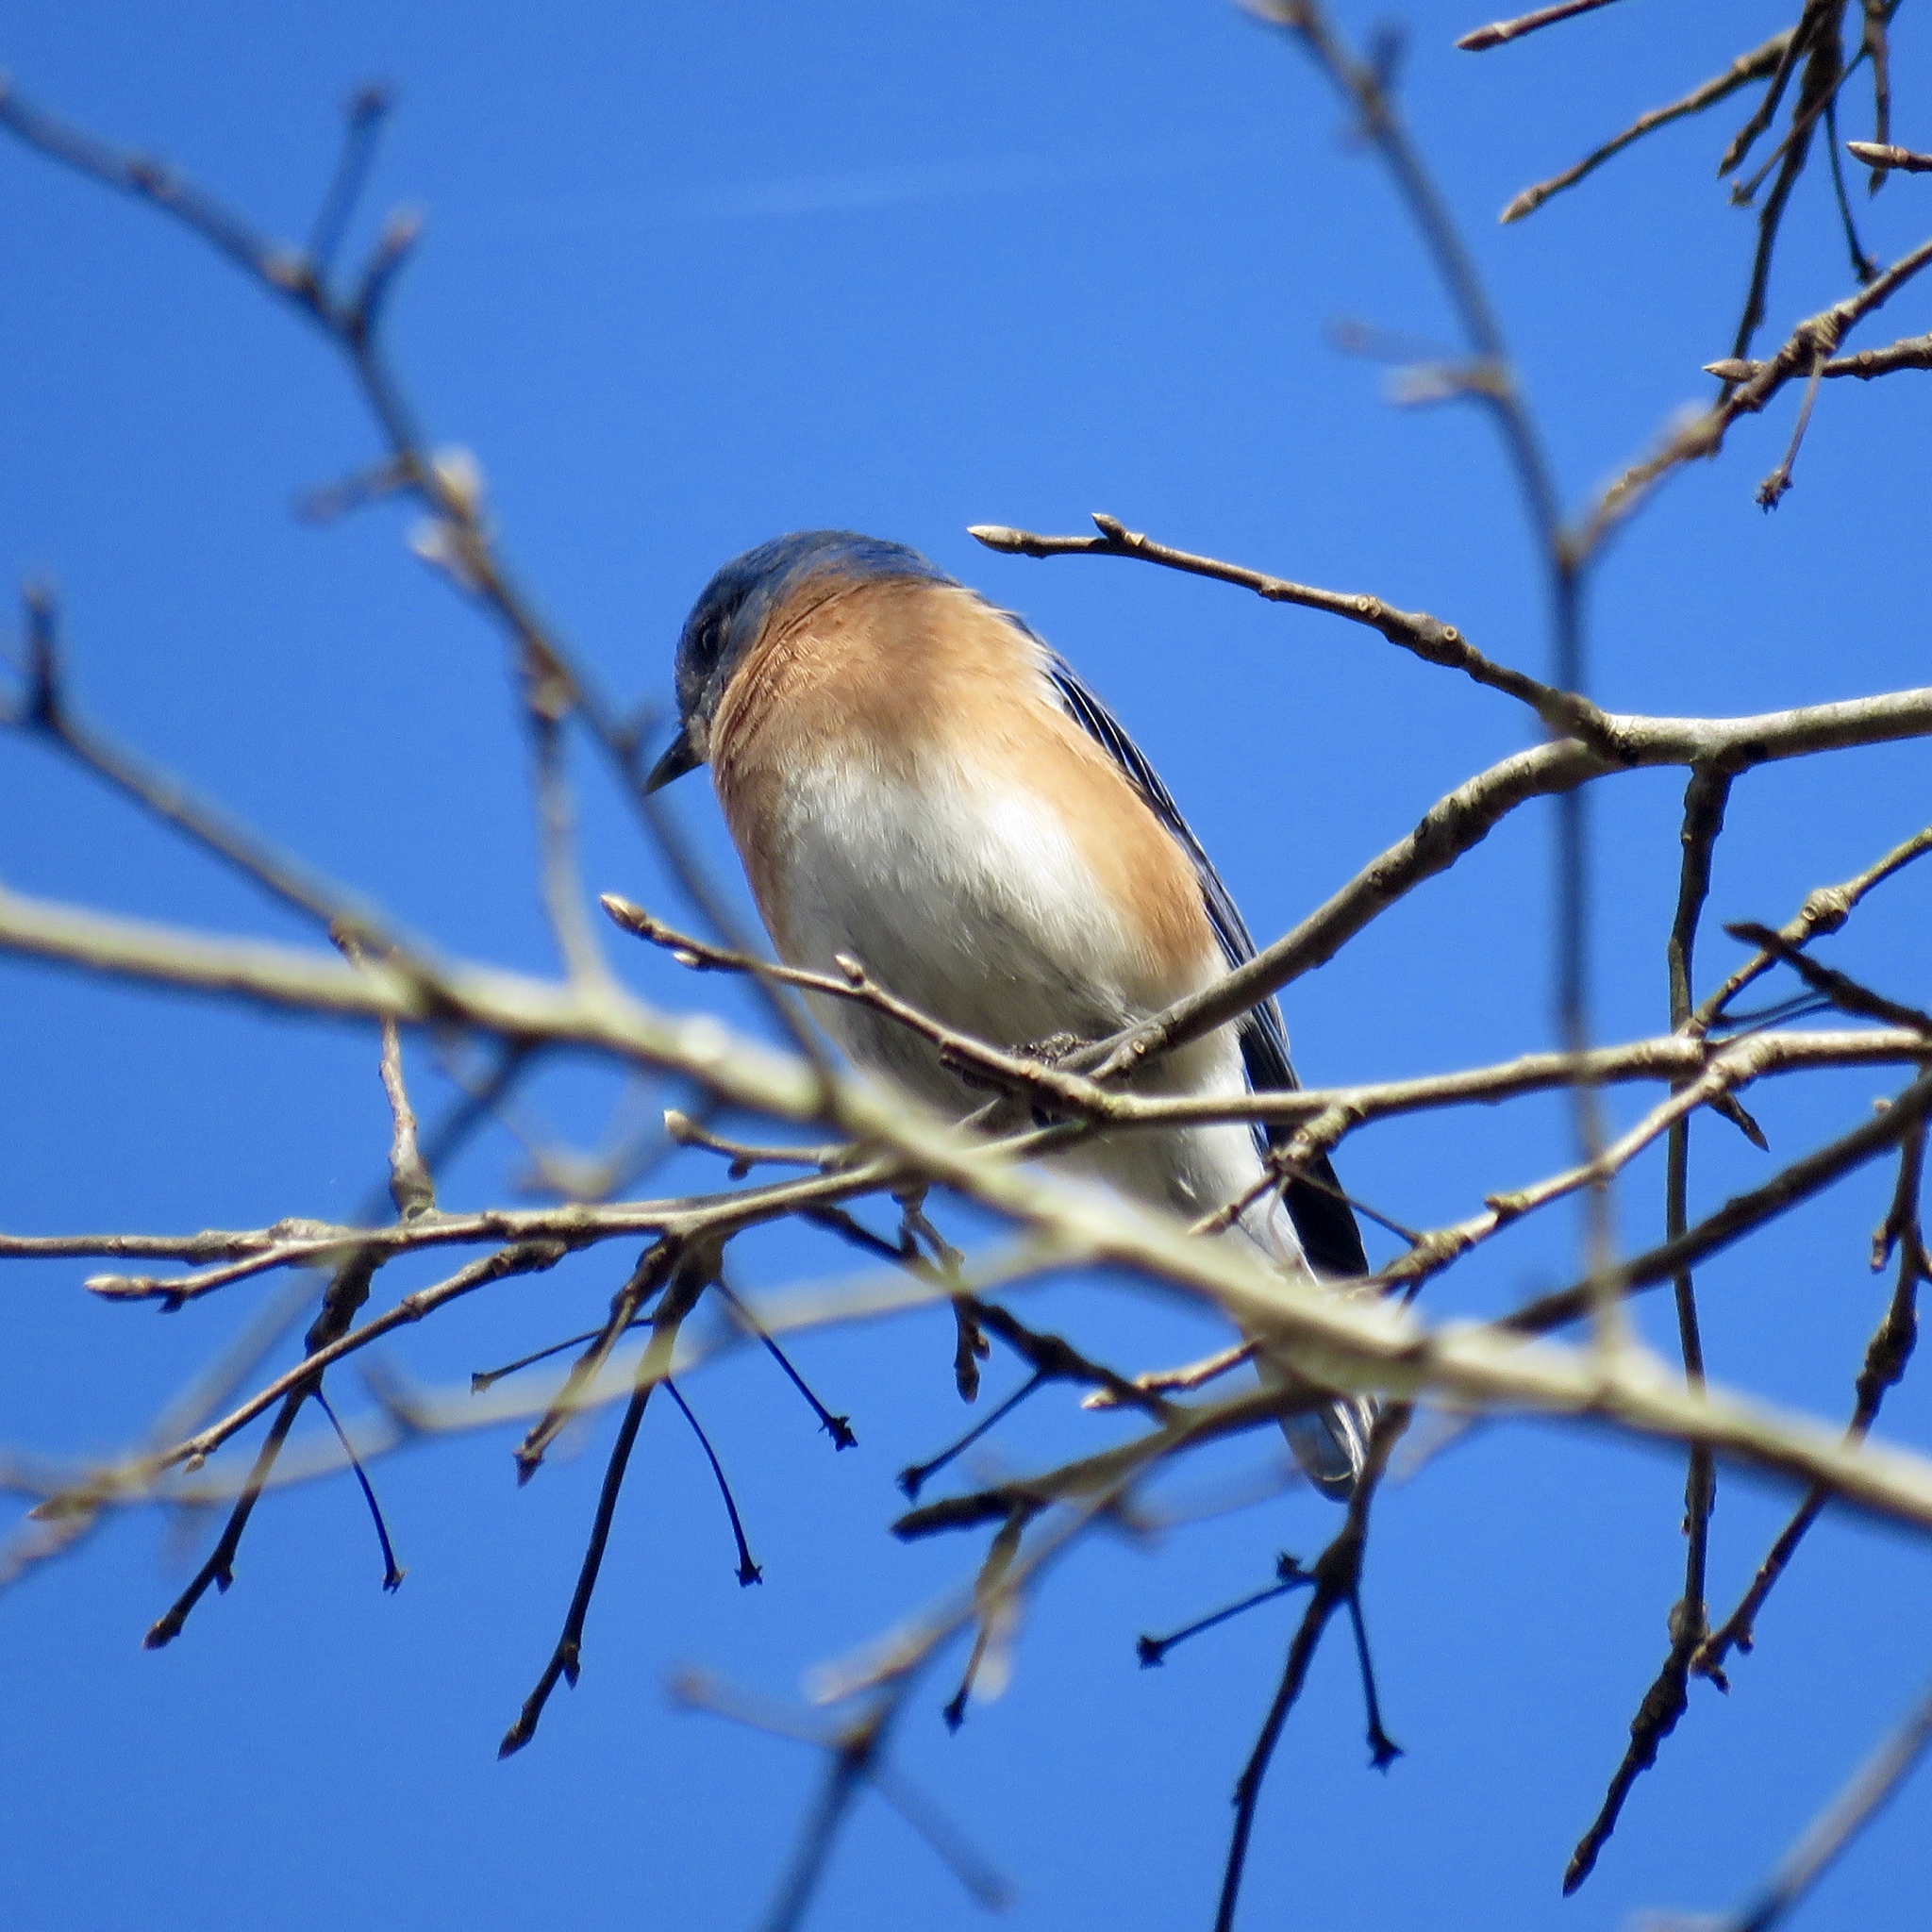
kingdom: Animalia
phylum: Chordata
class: Aves
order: Passeriformes
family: Turdidae
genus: Sialia
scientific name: Sialia sialis
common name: Eastern bluebird
